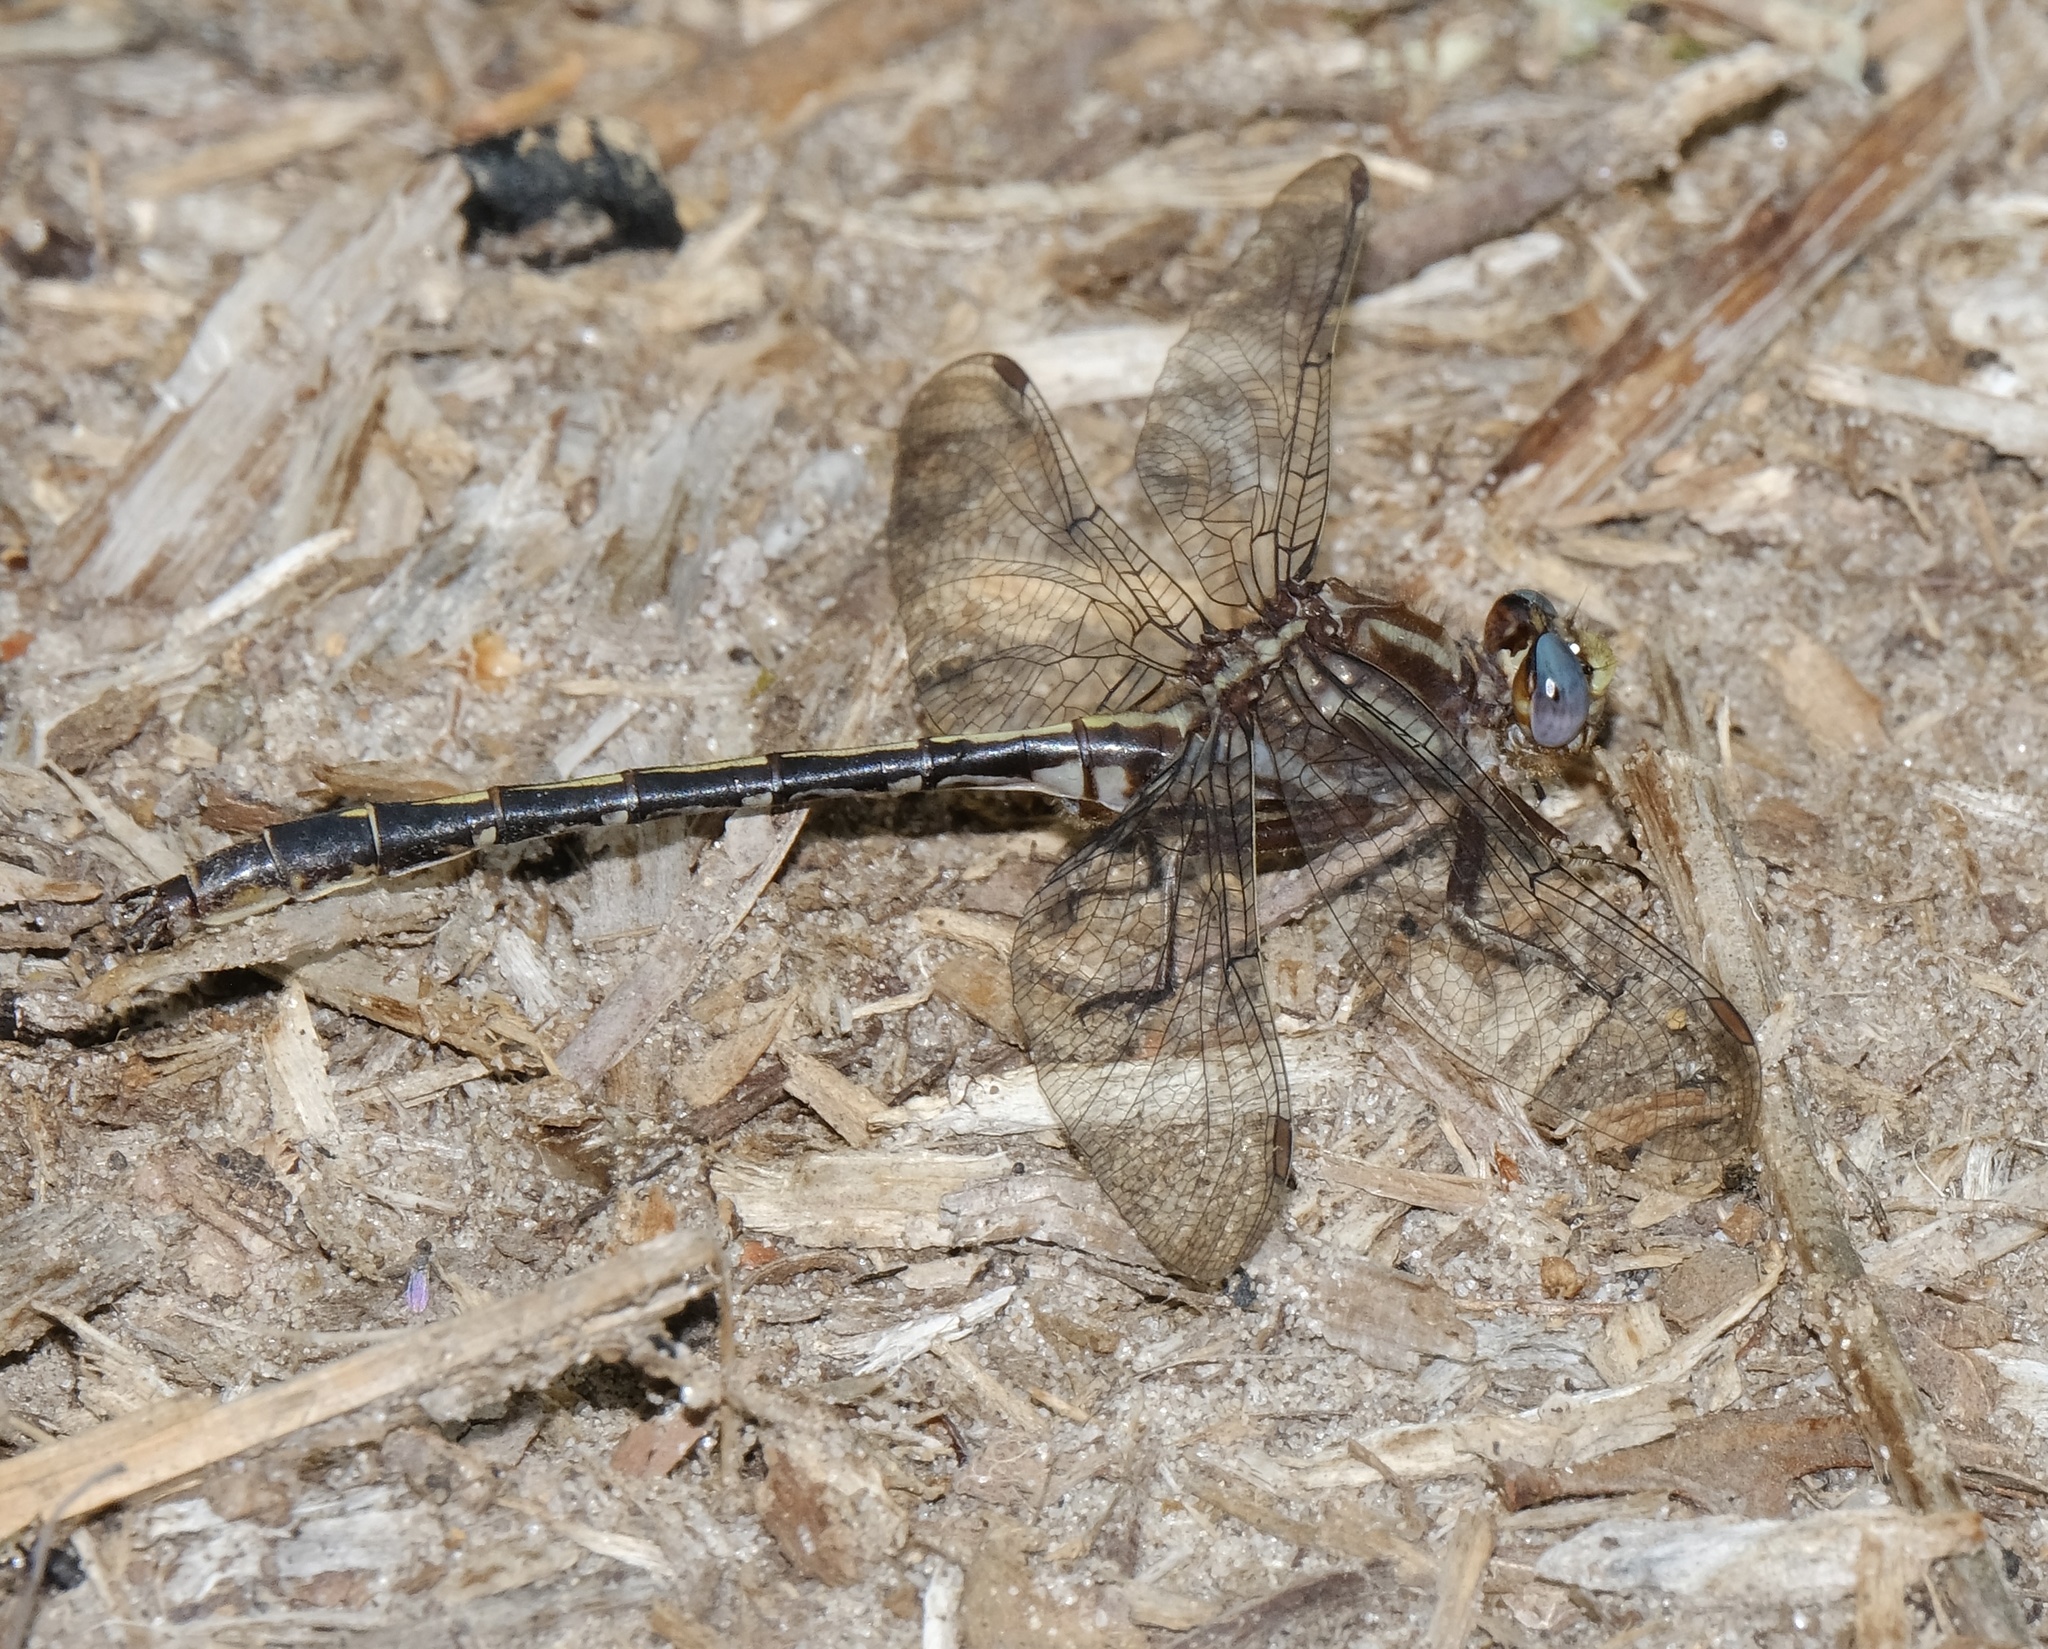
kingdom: Animalia
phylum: Arthropoda
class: Insecta
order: Odonata
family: Gomphidae
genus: Phanogomphus
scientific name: Phanogomphus lividus
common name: Ashy clubtail
